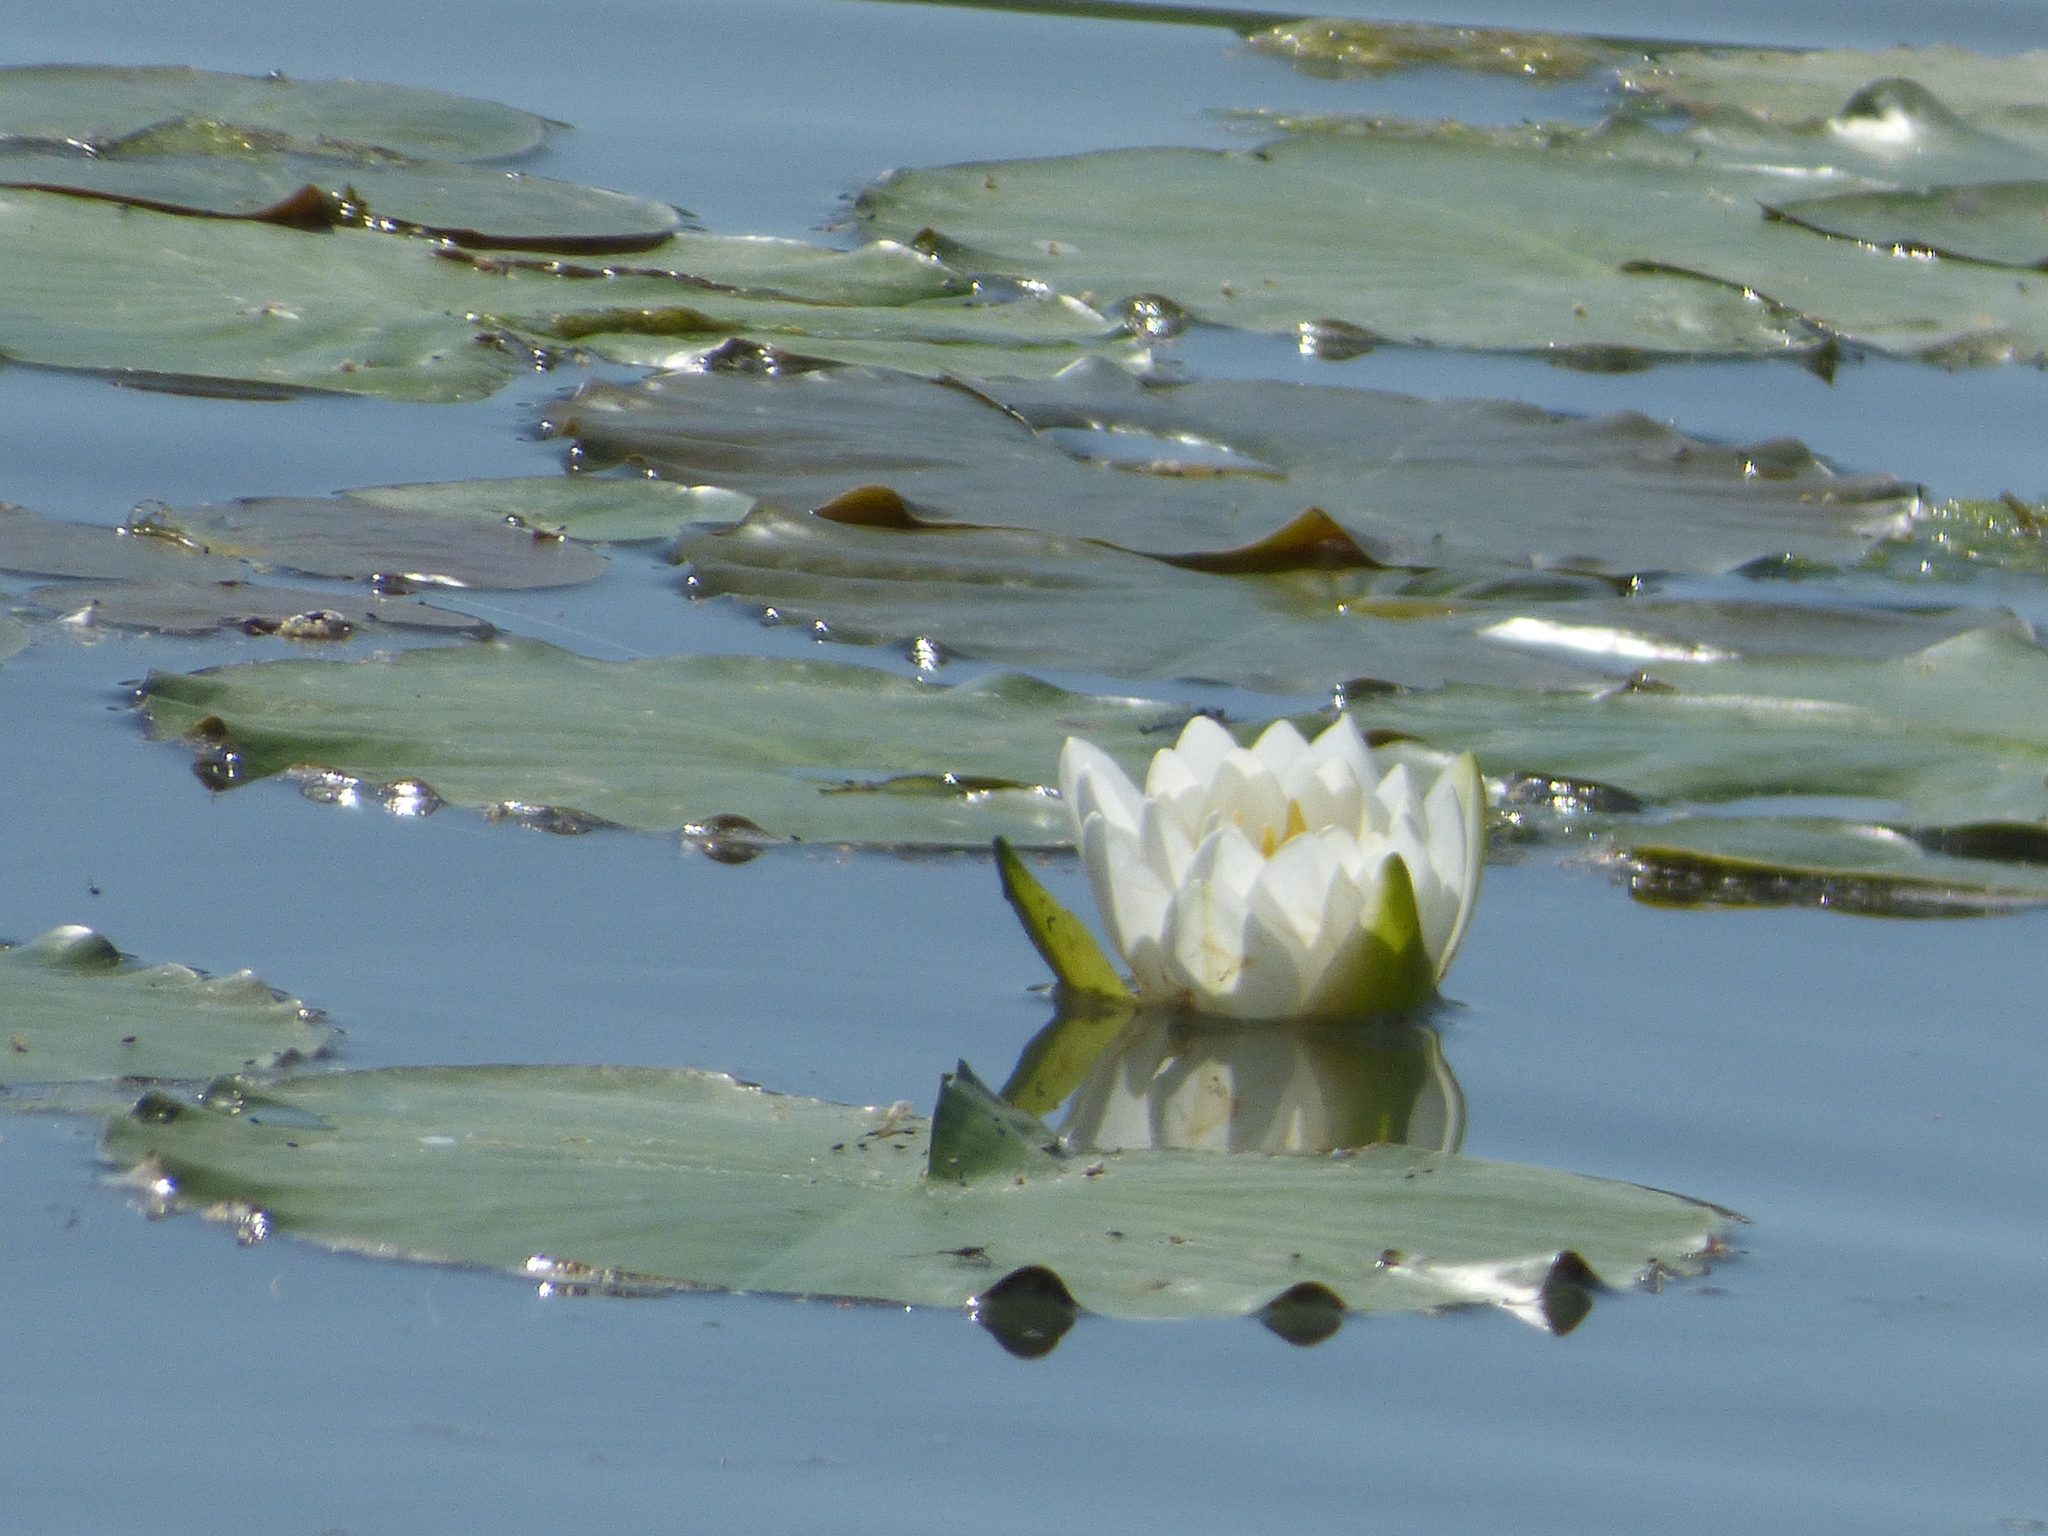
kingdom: Plantae
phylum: Tracheophyta
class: Magnoliopsida
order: Nymphaeales
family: Nymphaeaceae
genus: Nymphaea
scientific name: Nymphaea odorata
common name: Fragrant water-lily
